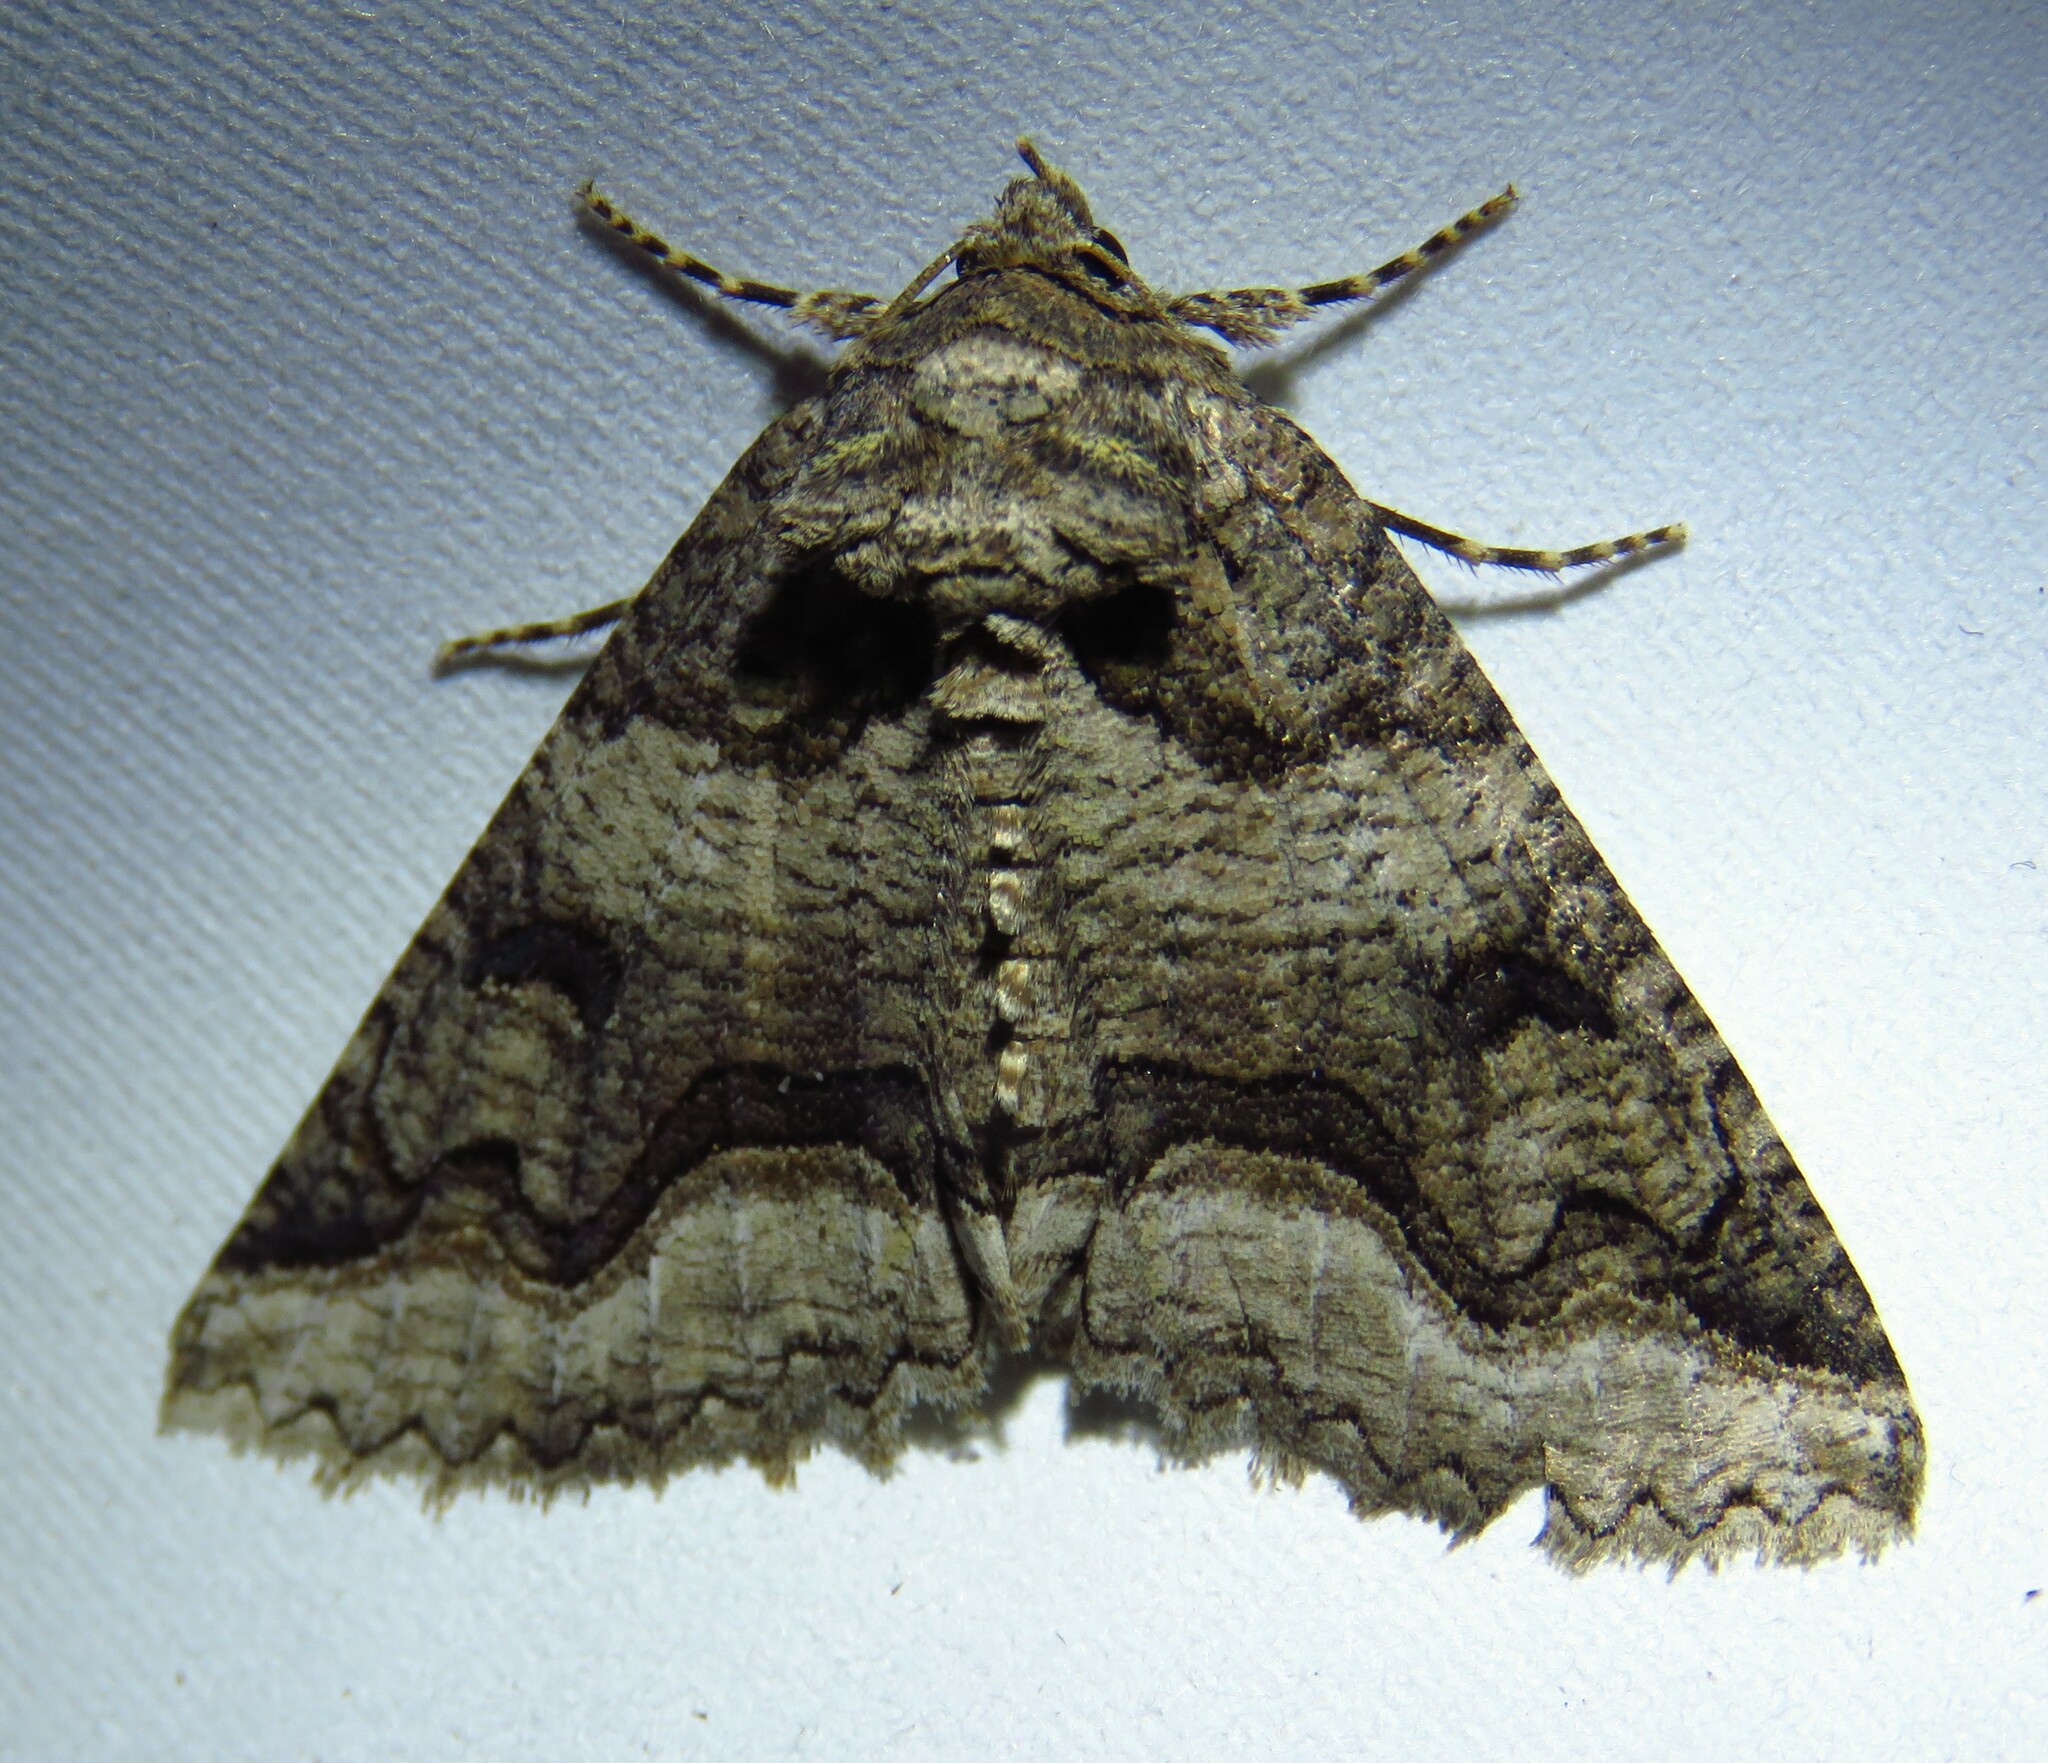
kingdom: Animalia
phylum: Arthropoda
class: Insecta
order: Lepidoptera
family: Erebidae
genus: Zale
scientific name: Zale calycanthata
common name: Double-banded zale
